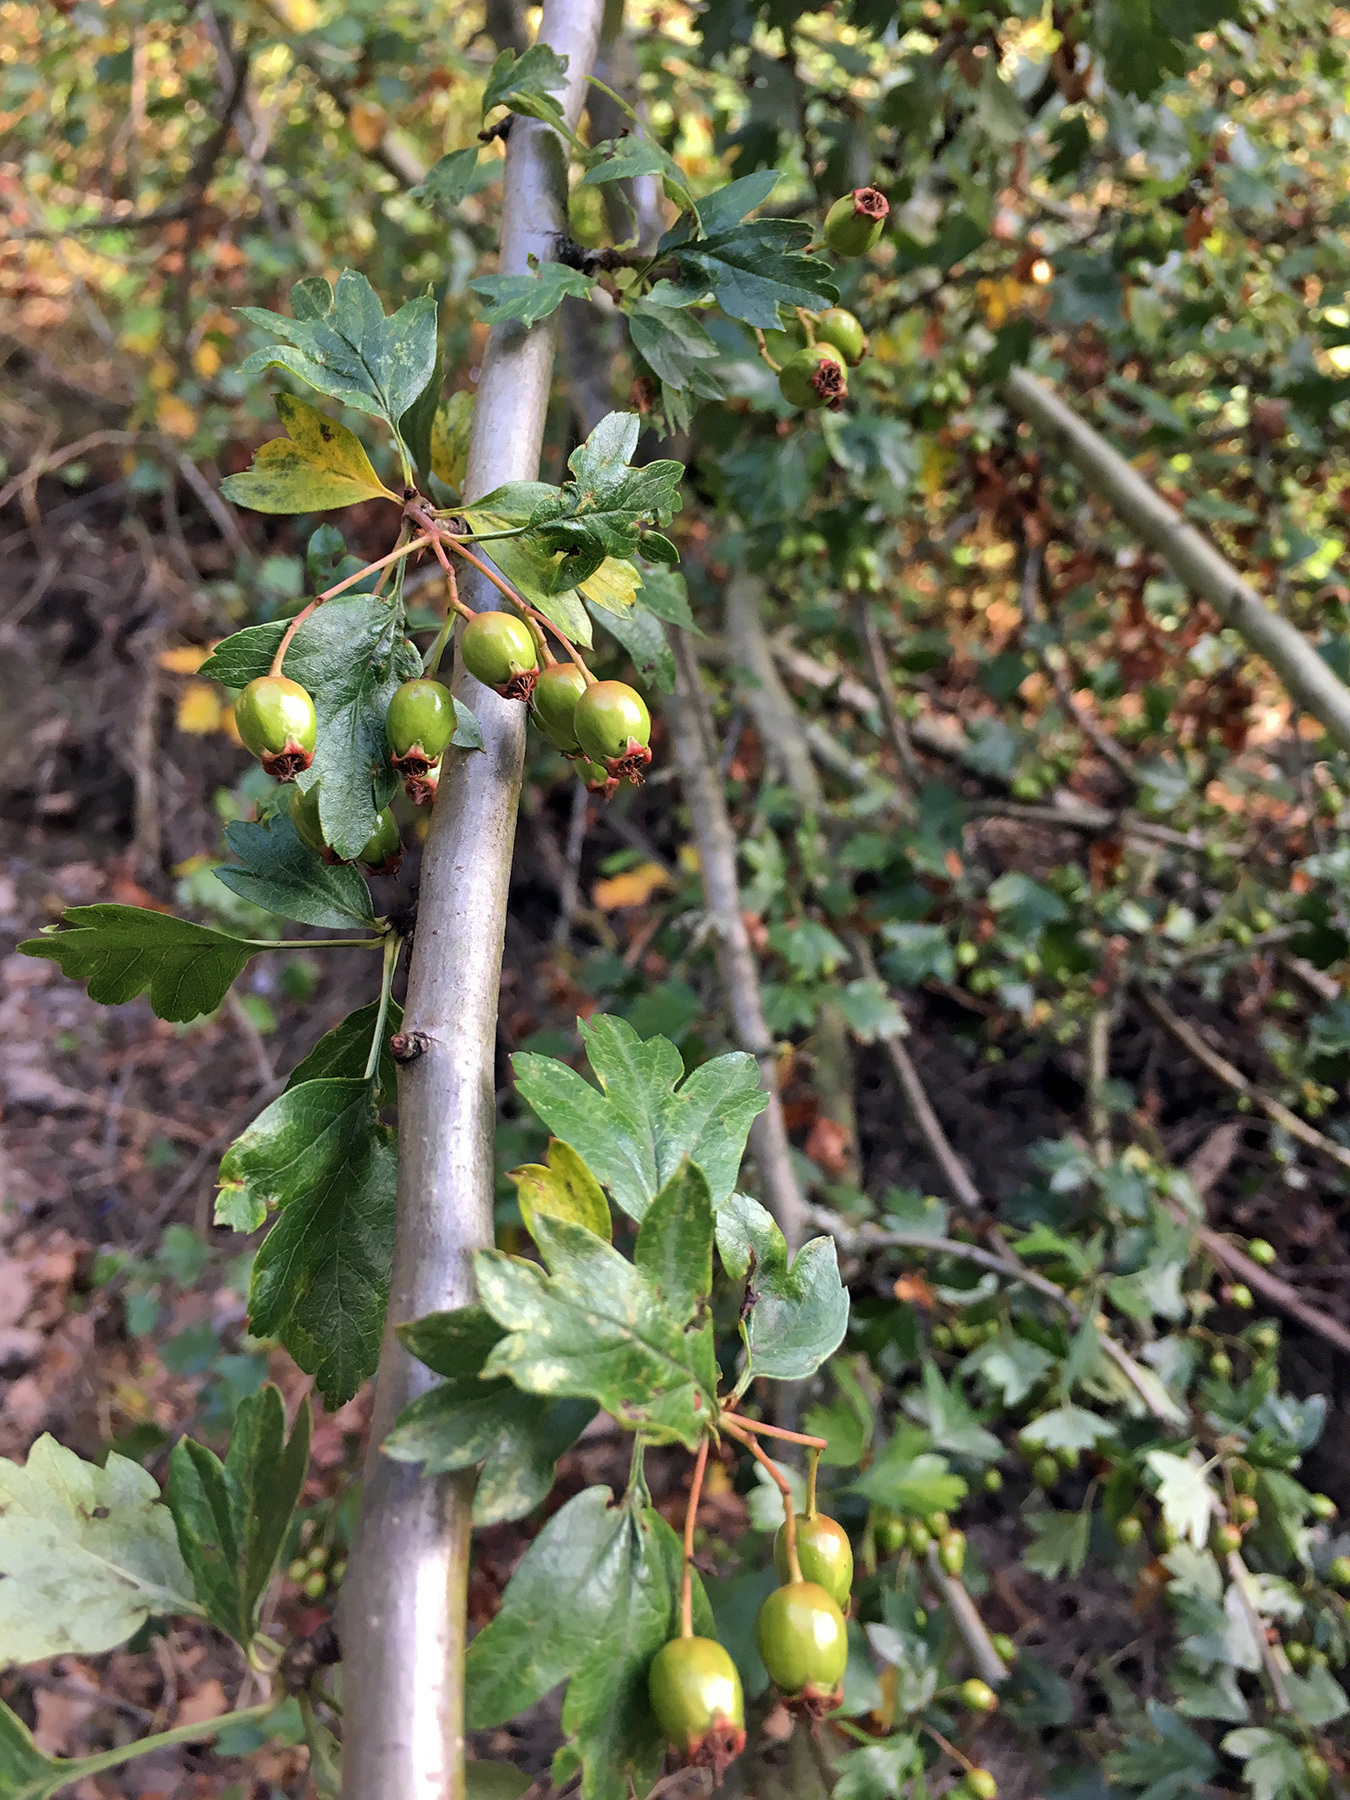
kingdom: Plantae
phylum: Tracheophyta
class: Magnoliopsida
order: Rosales
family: Rosaceae
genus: Crataegus
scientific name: Crataegus monogyna
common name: Hawthorn
